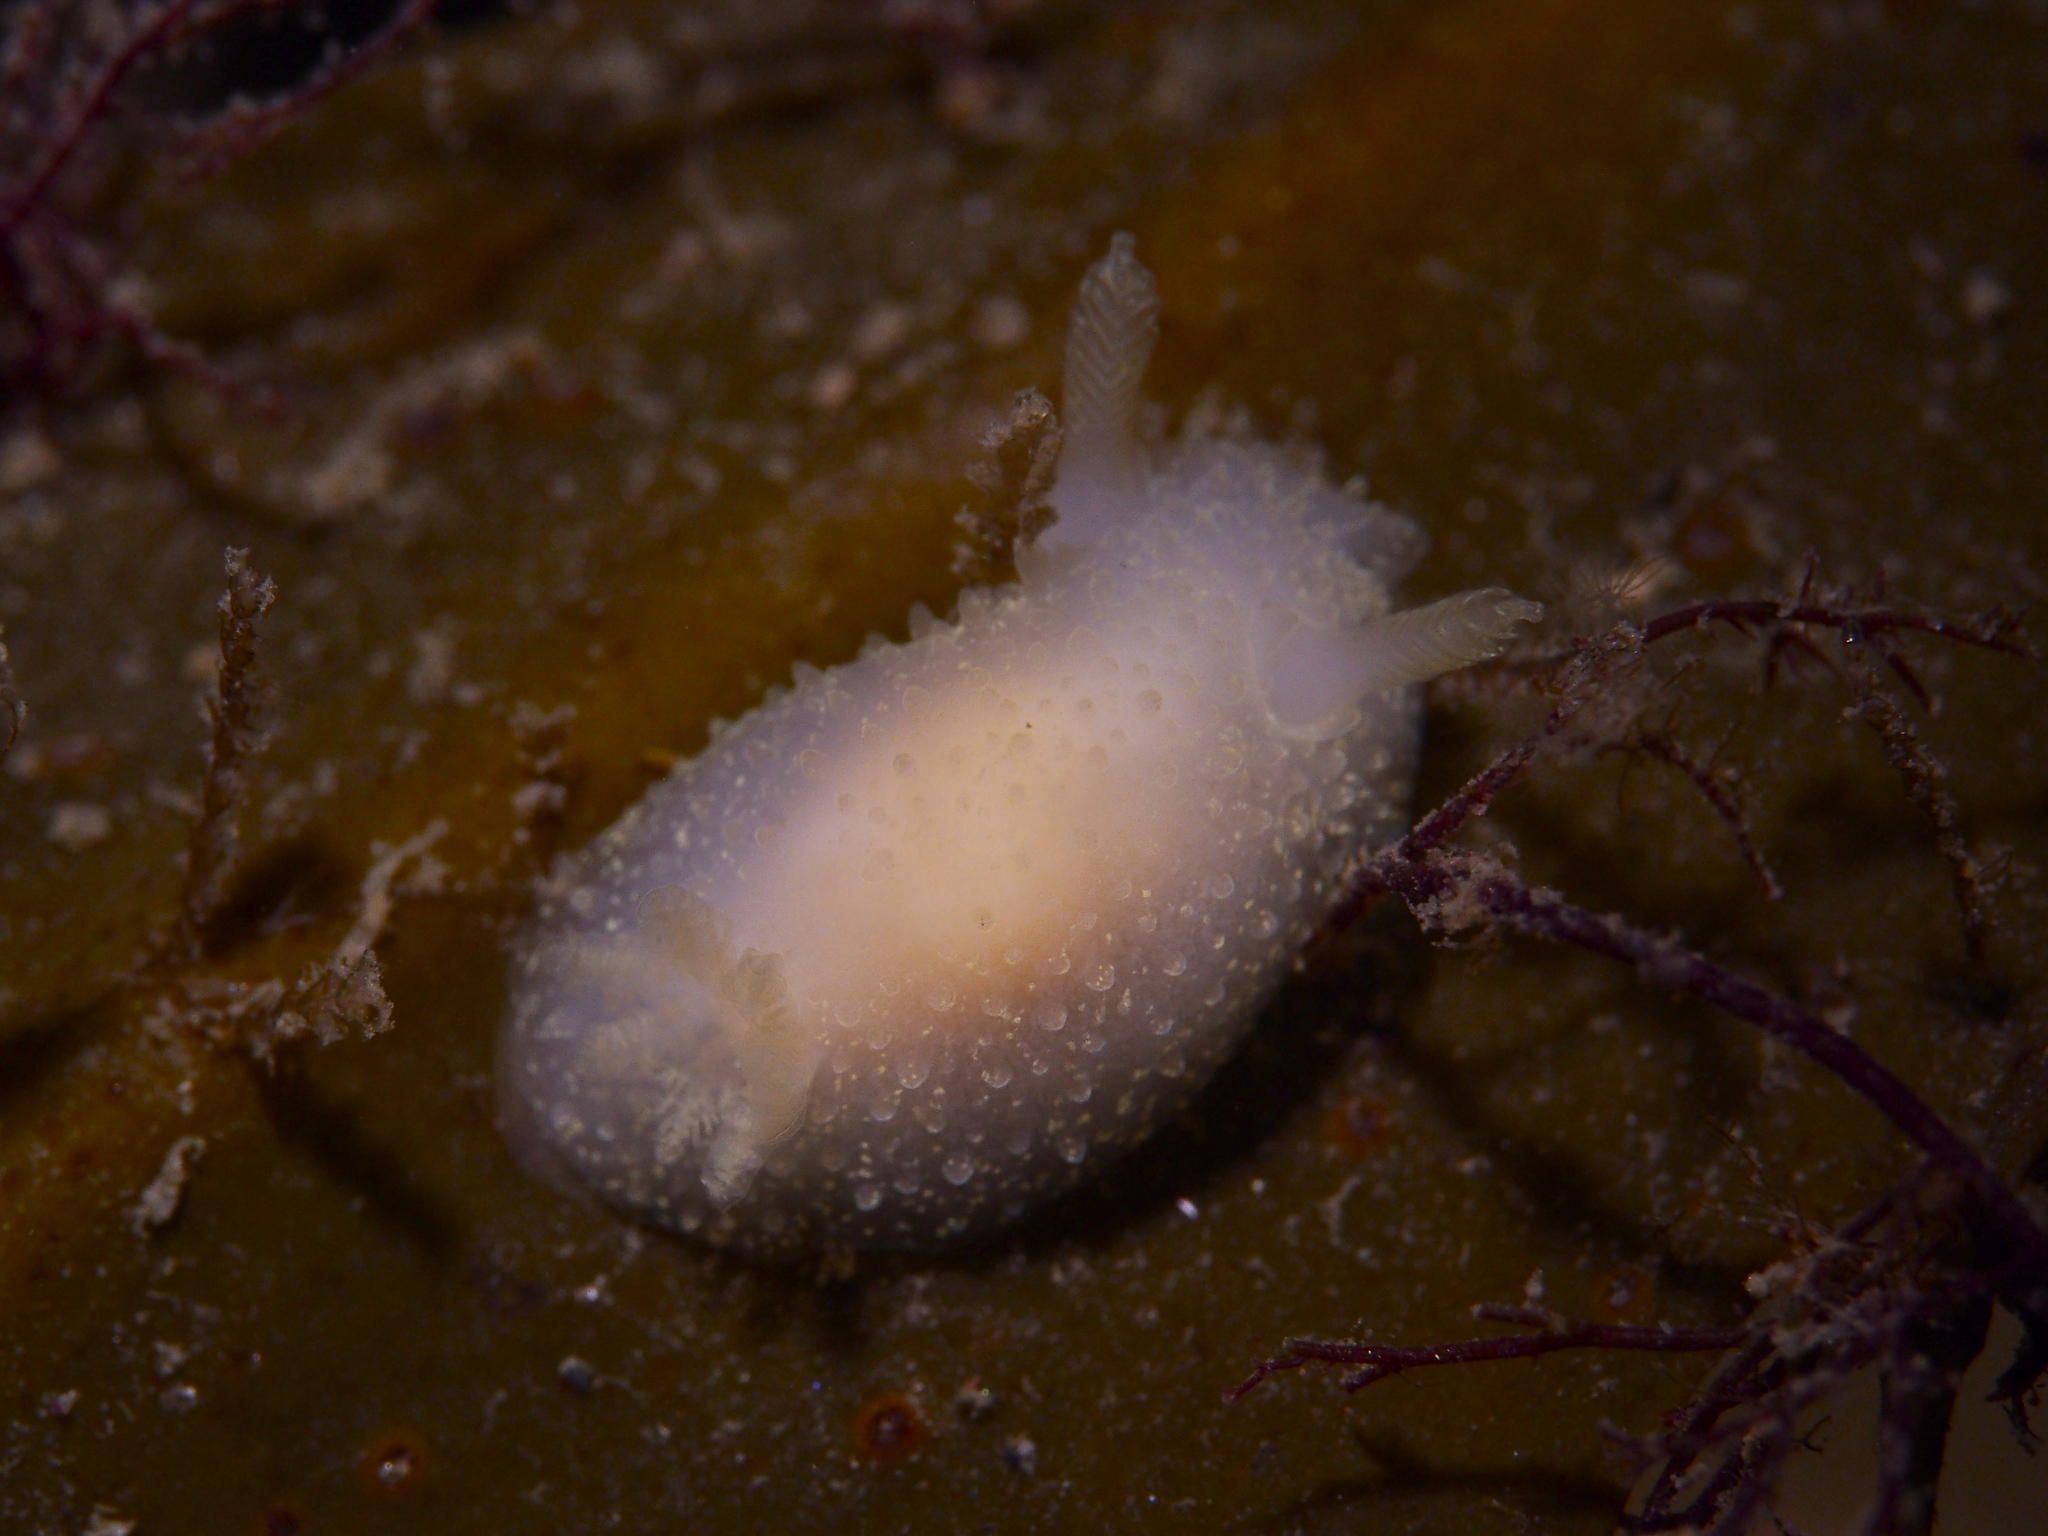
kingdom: Animalia
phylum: Mollusca
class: Gastropoda
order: Nudibranchia
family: Onchidorididae
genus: Acanthodoris
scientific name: Acanthodoris pilosa
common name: Hairy spiny doris
